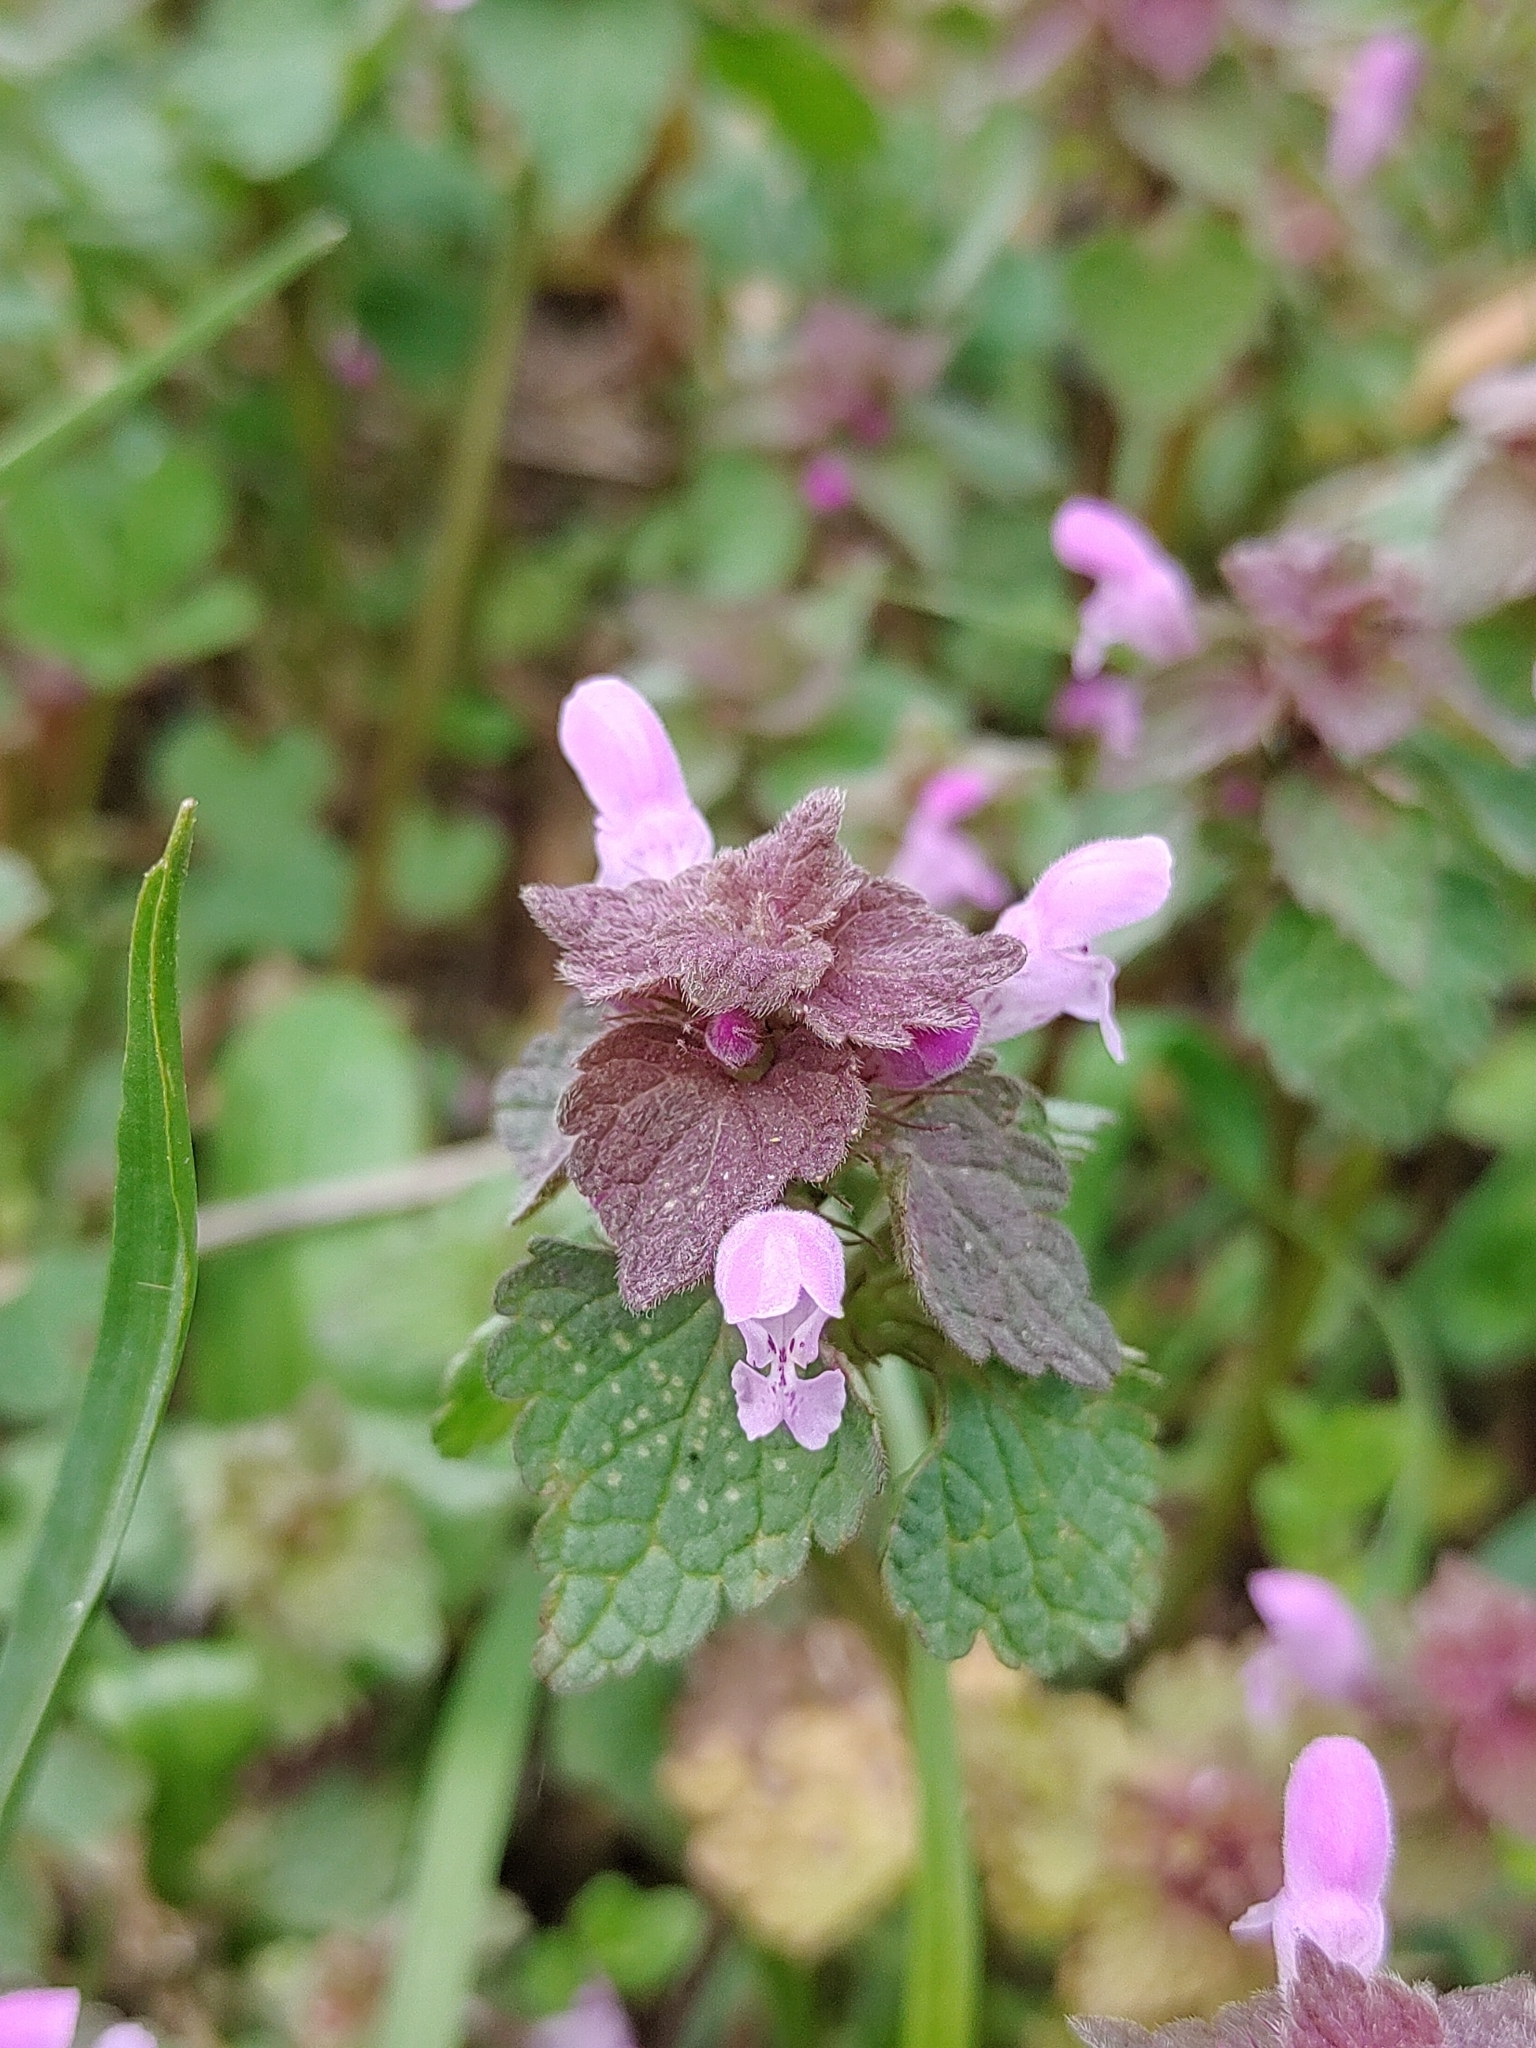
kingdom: Plantae
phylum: Tracheophyta
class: Magnoliopsida
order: Lamiales
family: Lamiaceae
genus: Lamium
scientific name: Lamium purpureum
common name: Red dead-nettle
